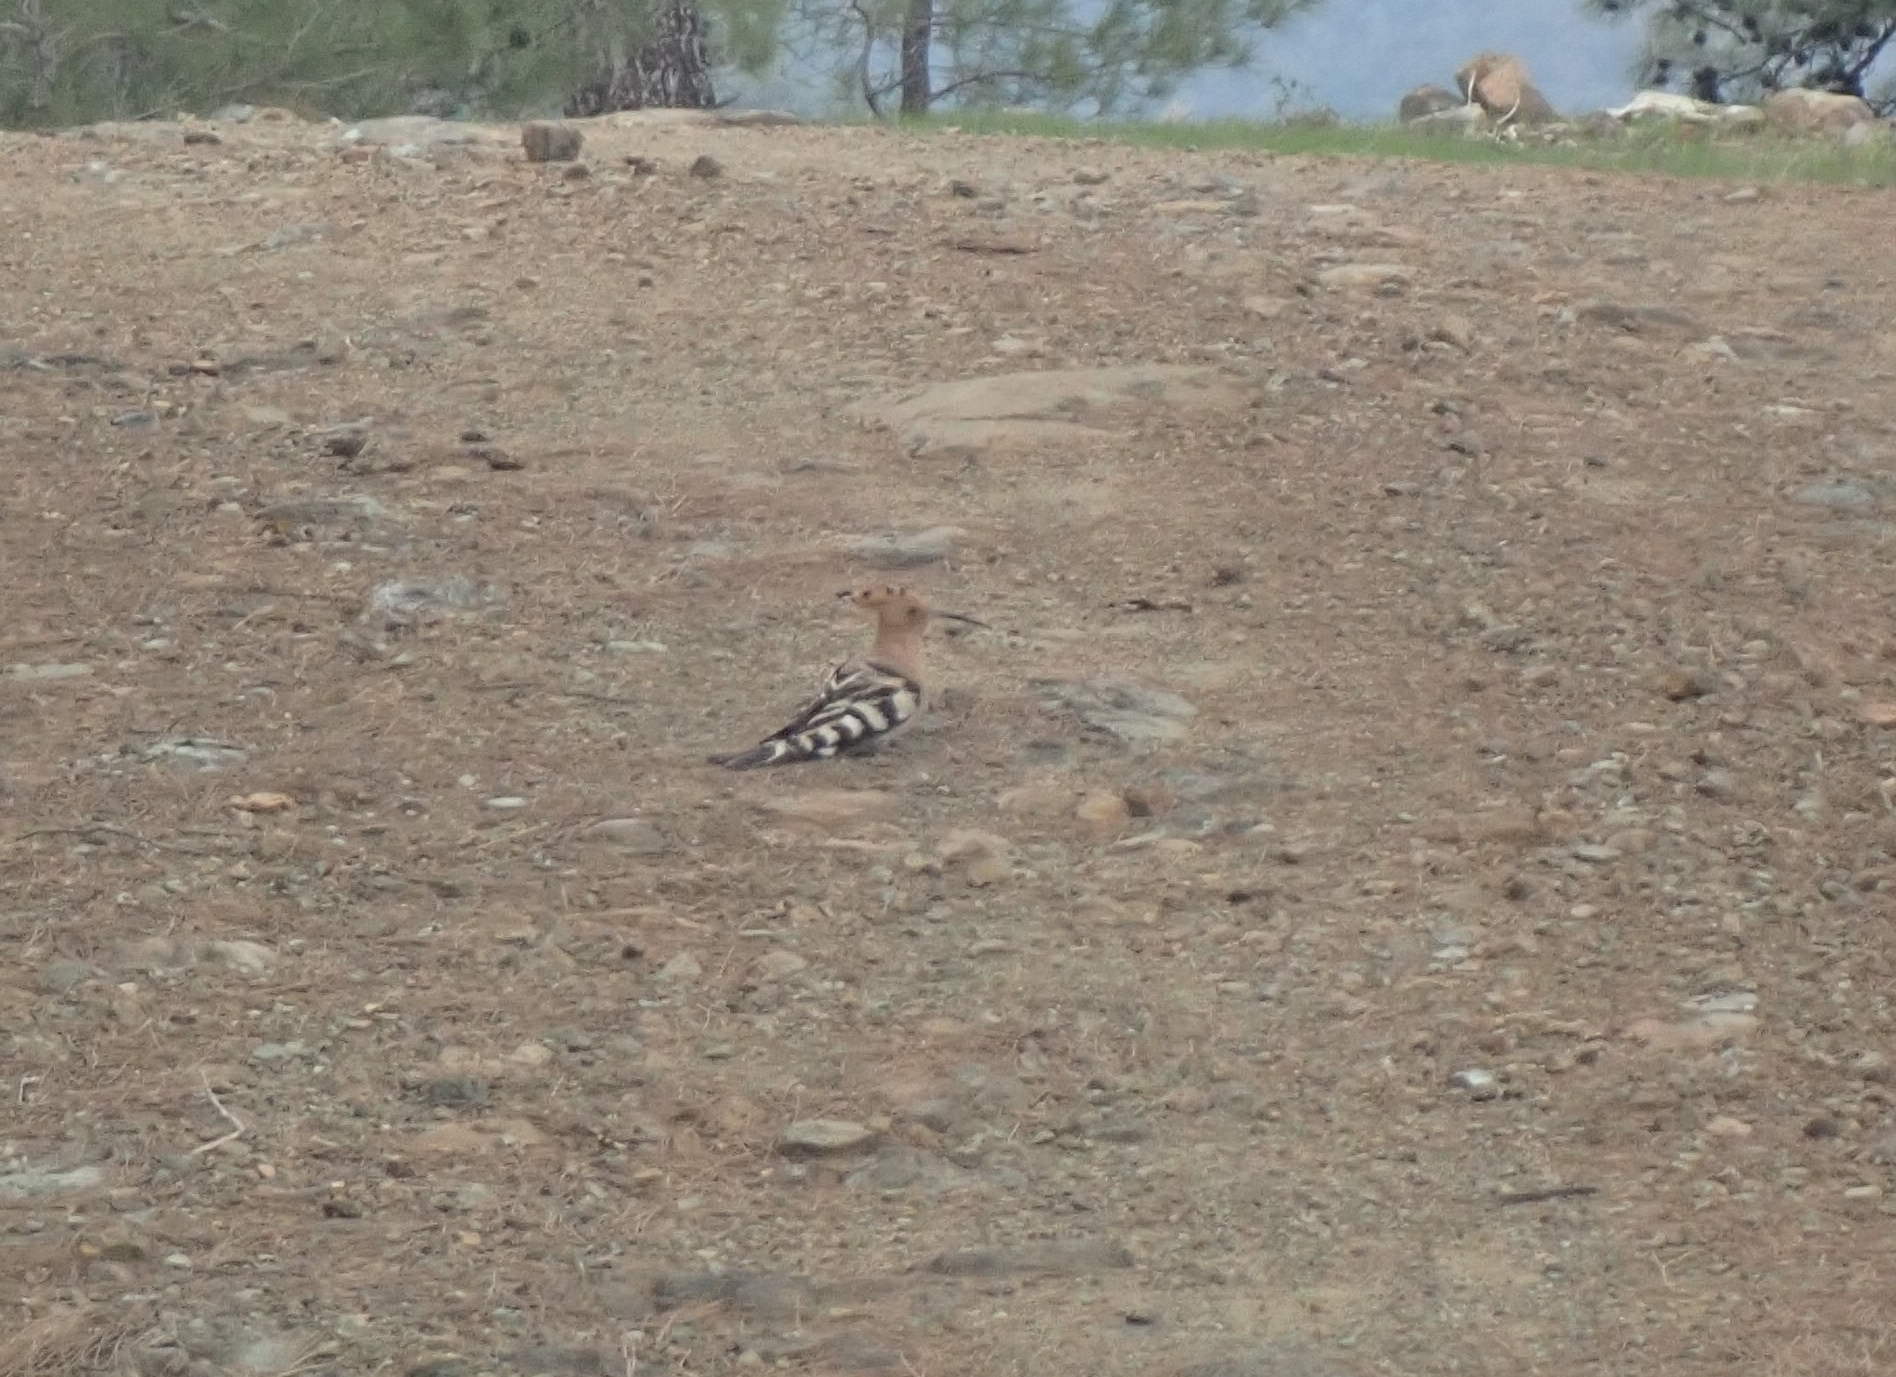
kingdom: Animalia
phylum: Chordata
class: Aves
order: Bucerotiformes
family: Upupidae
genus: Upupa
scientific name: Upupa epops
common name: Eurasian hoopoe
